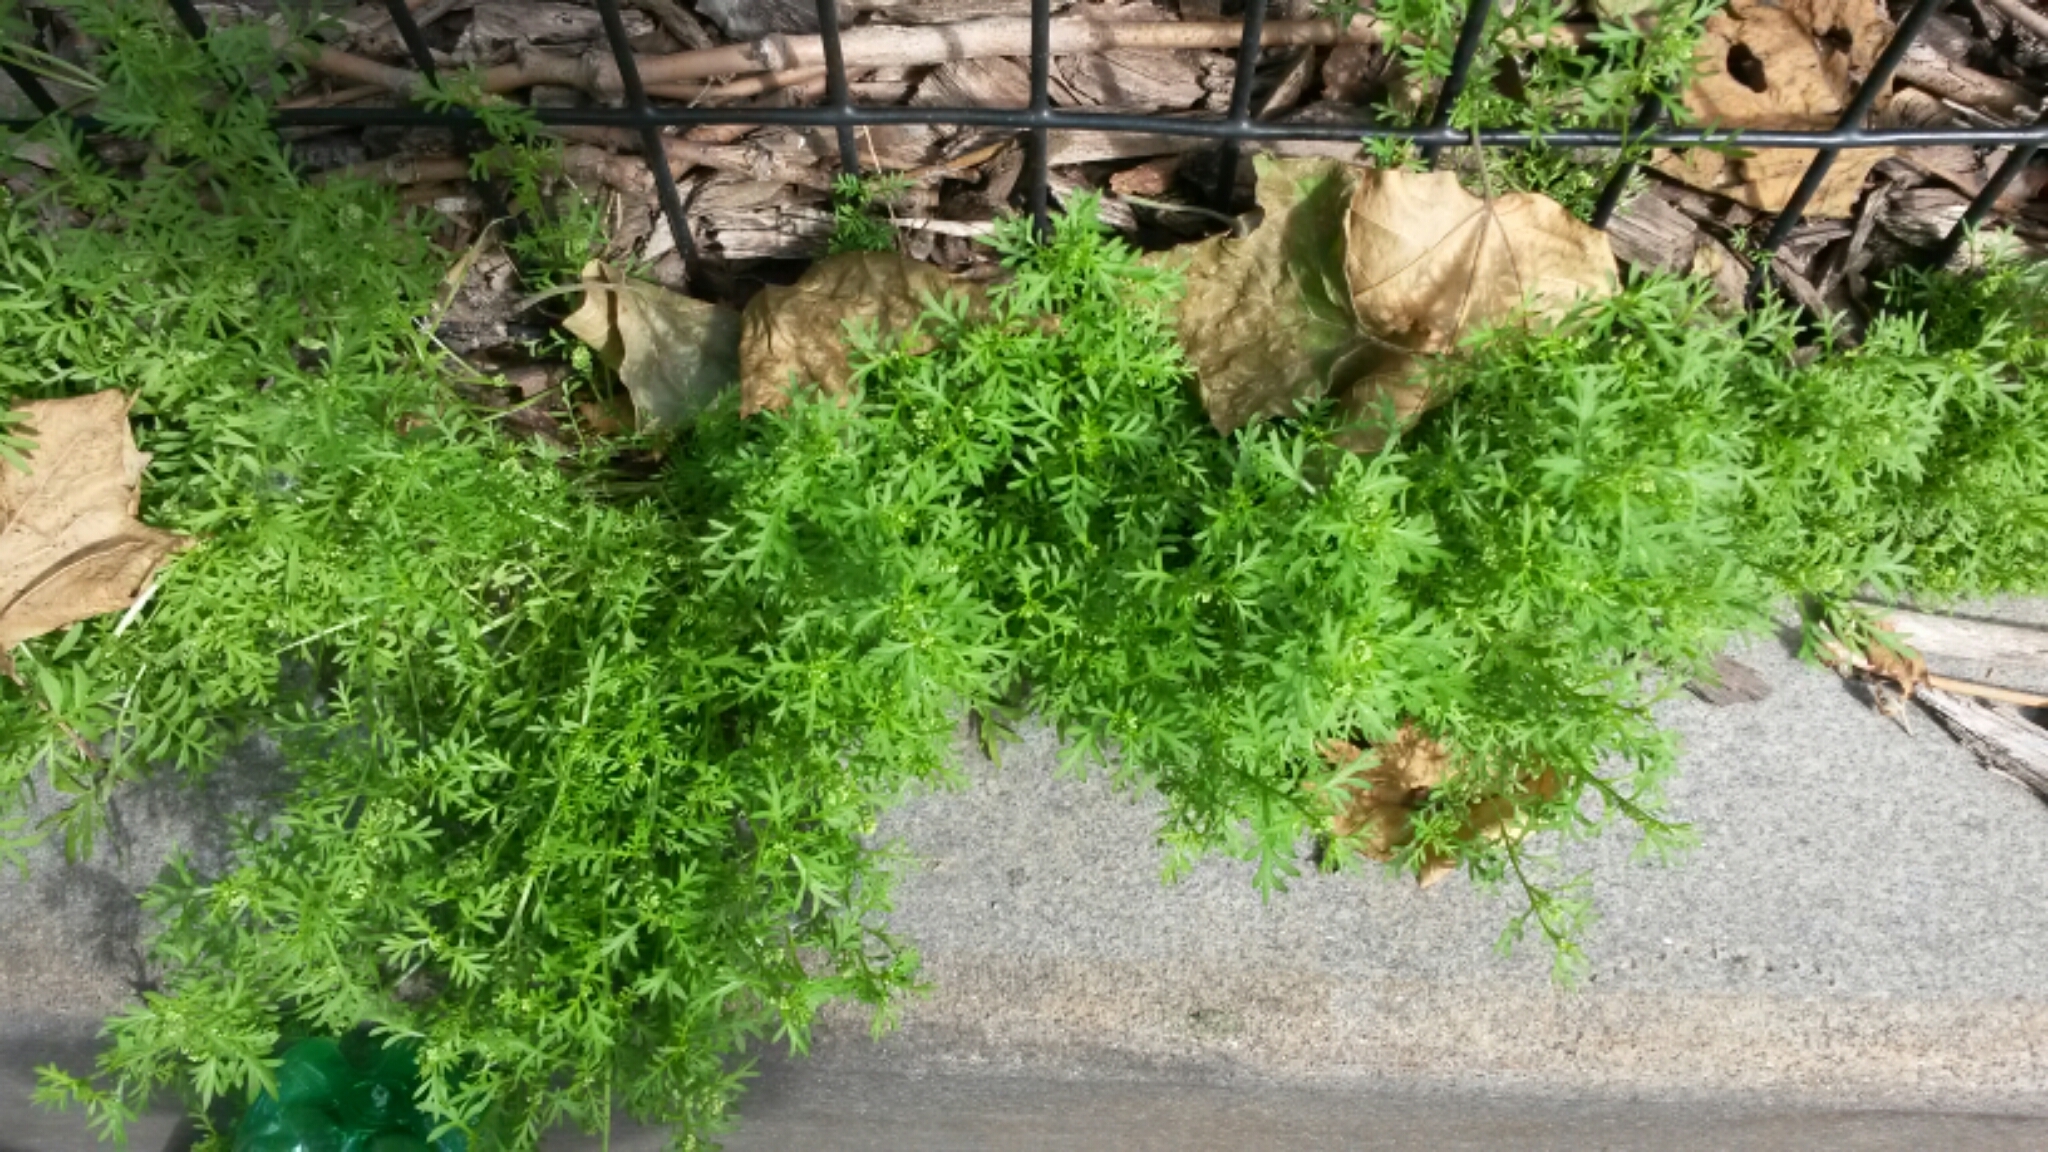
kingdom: Plantae
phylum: Tracheophyta
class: Magnoliopsida
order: Brassicales
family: Brassicaceae
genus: Lepidium
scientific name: Lepidium didymum
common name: Lesser swinecress
